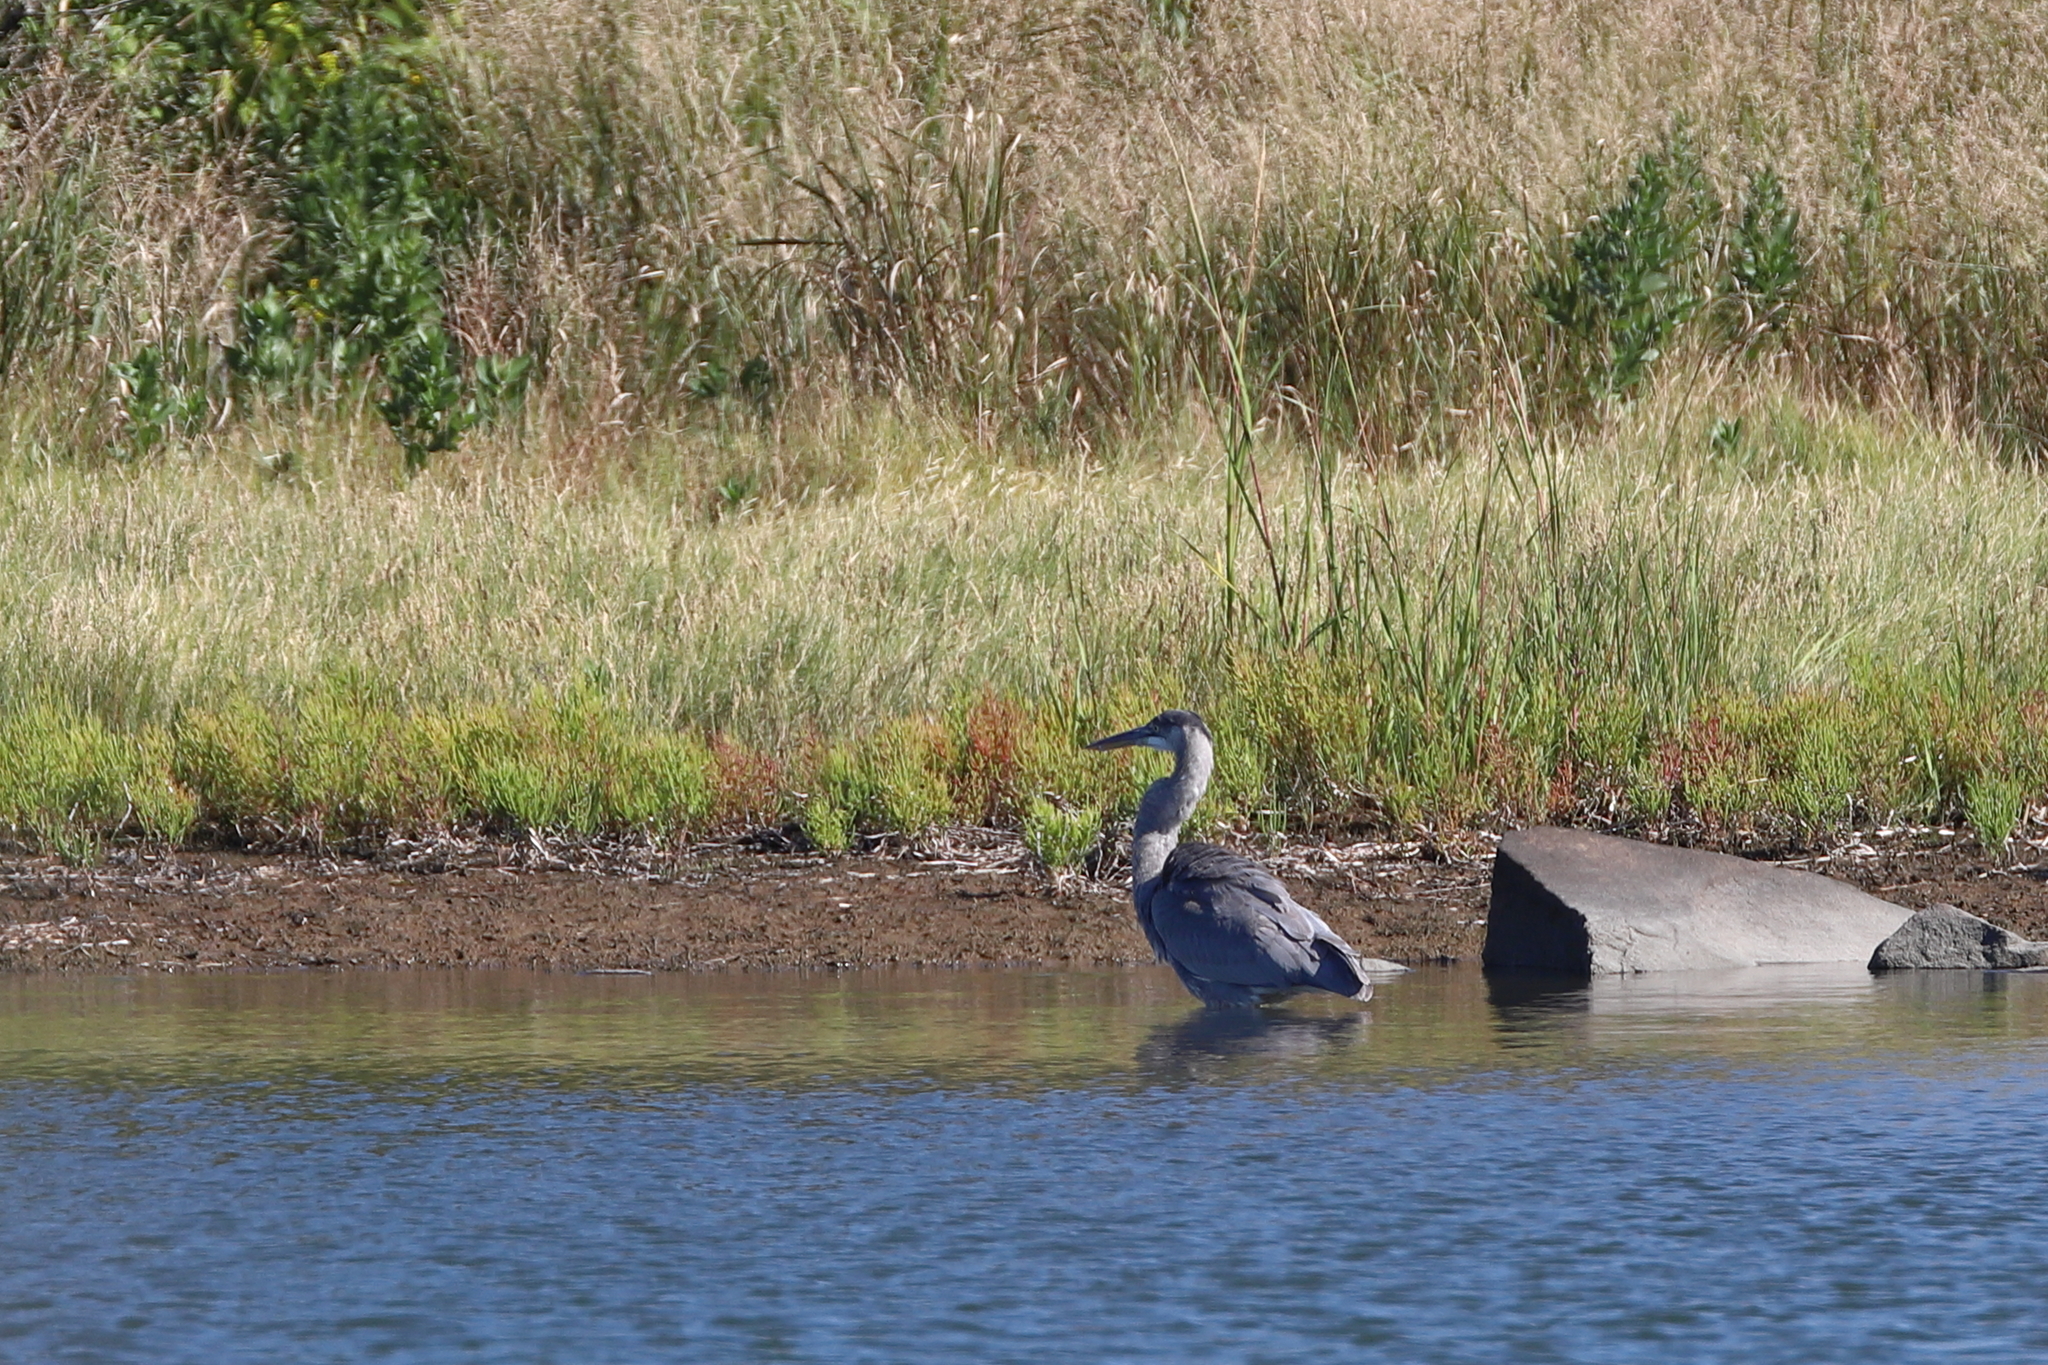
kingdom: Animalia
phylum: Chordata
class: Aves
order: Pelecaniformes
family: Ardeidae
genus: Ardea
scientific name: Ardea herodias
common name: Great blue heron
